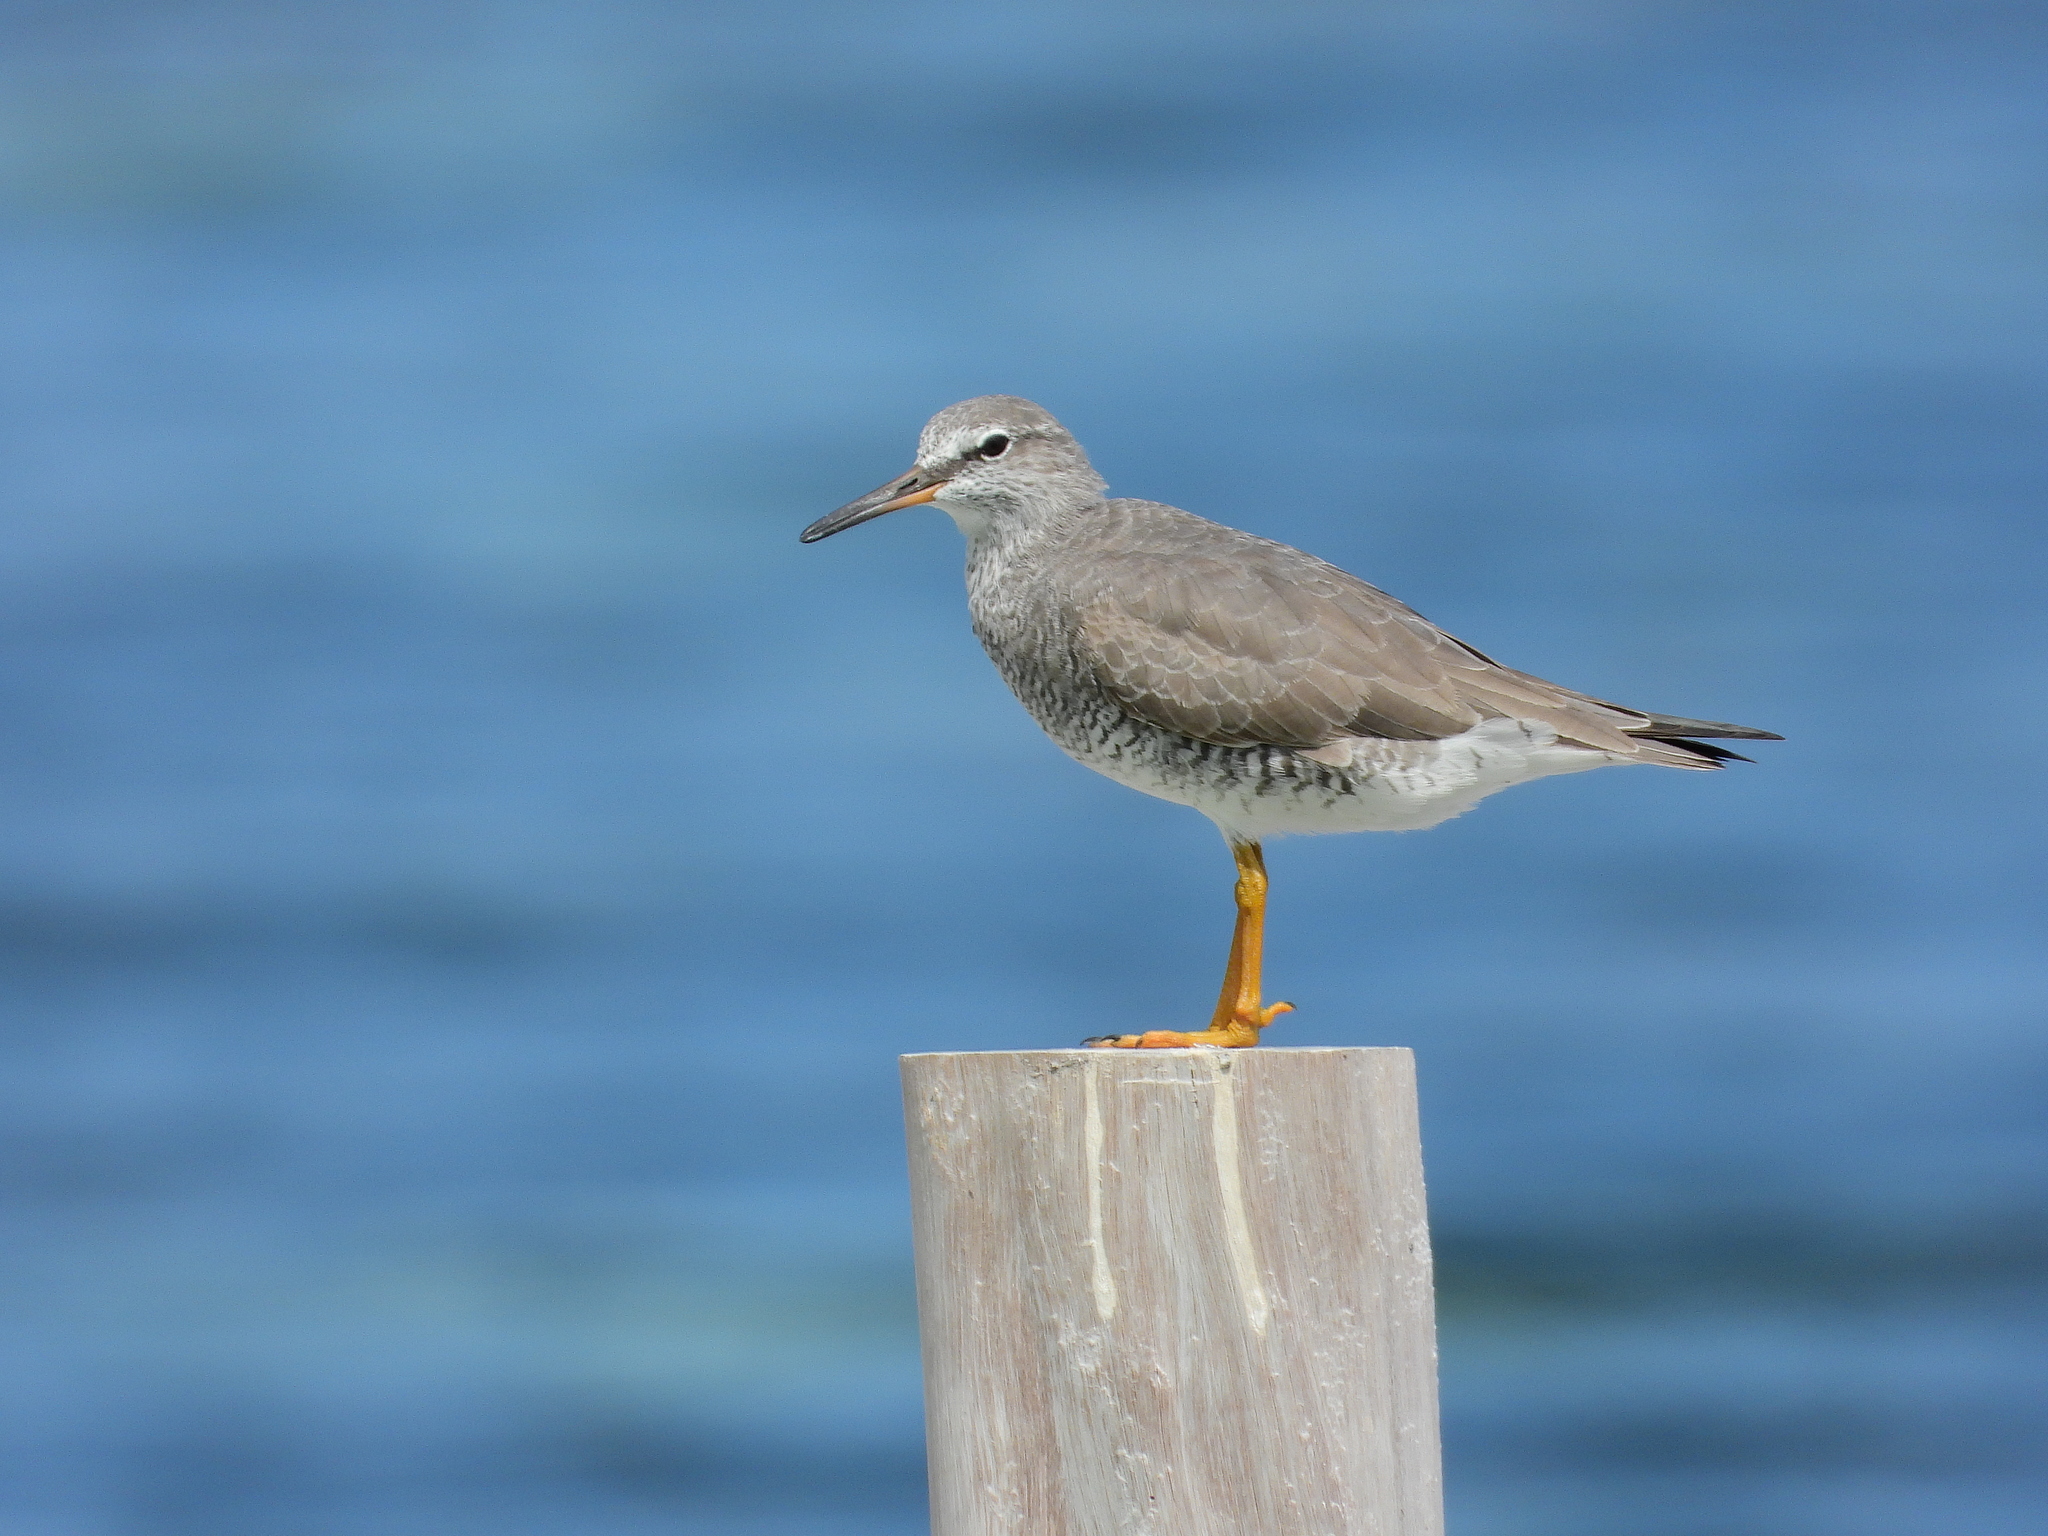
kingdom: Animalia
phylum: Chordata
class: Aves
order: Charadriiformes
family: Scolopacidae
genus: Tringa
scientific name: Tringa brevipes
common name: Grey-tailed tattler
